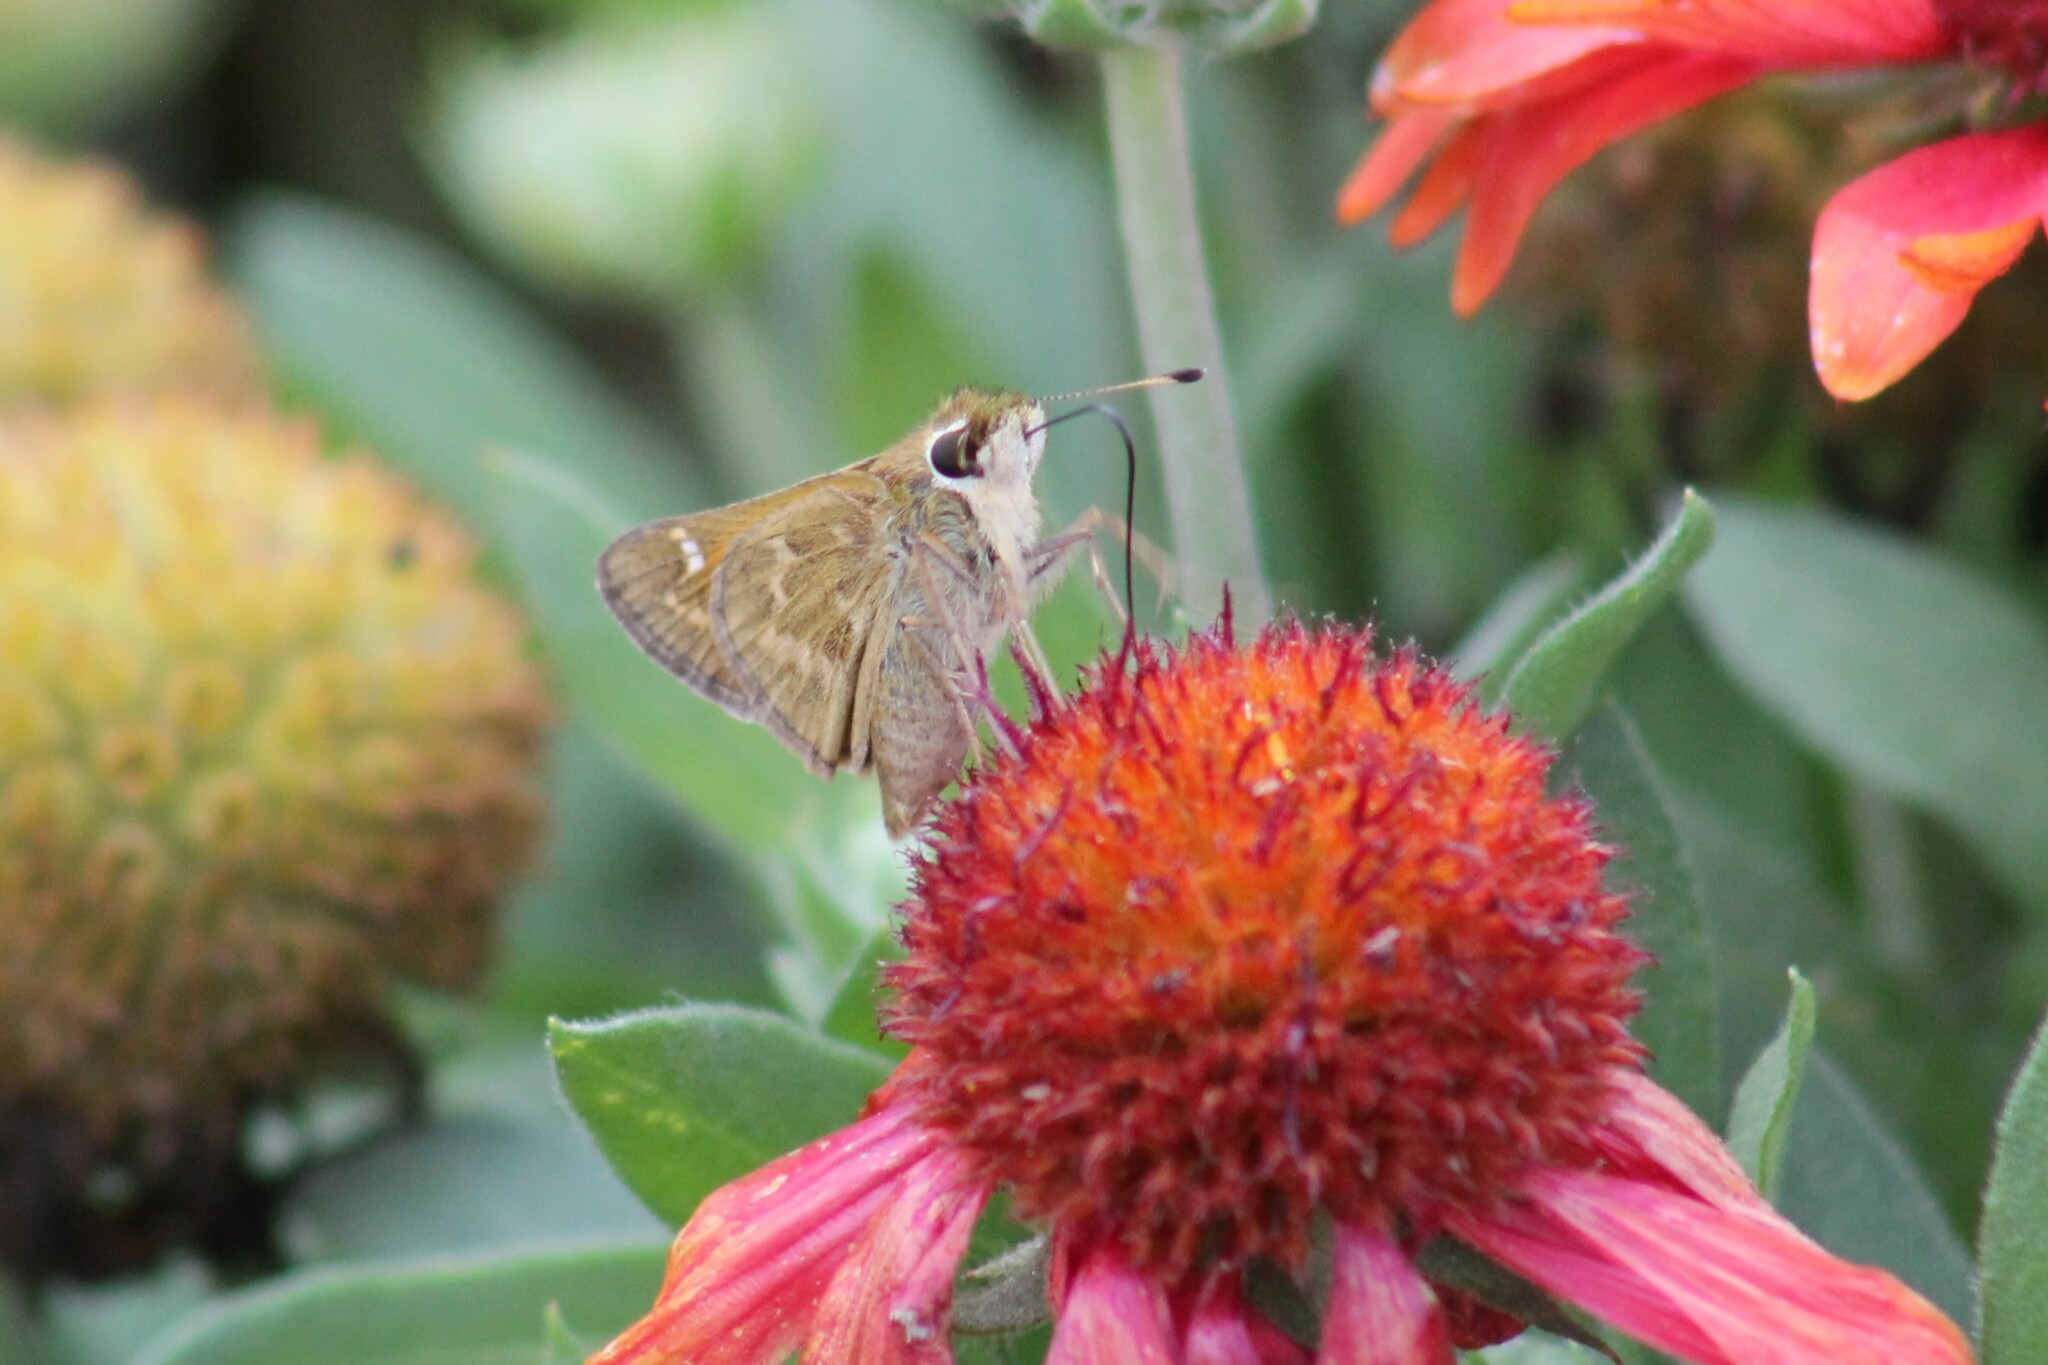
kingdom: Animalia
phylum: Arthropoda
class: Insecta
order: Lepidoptera
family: Hesperiidae
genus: Atalopedes
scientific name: Atalopedes
